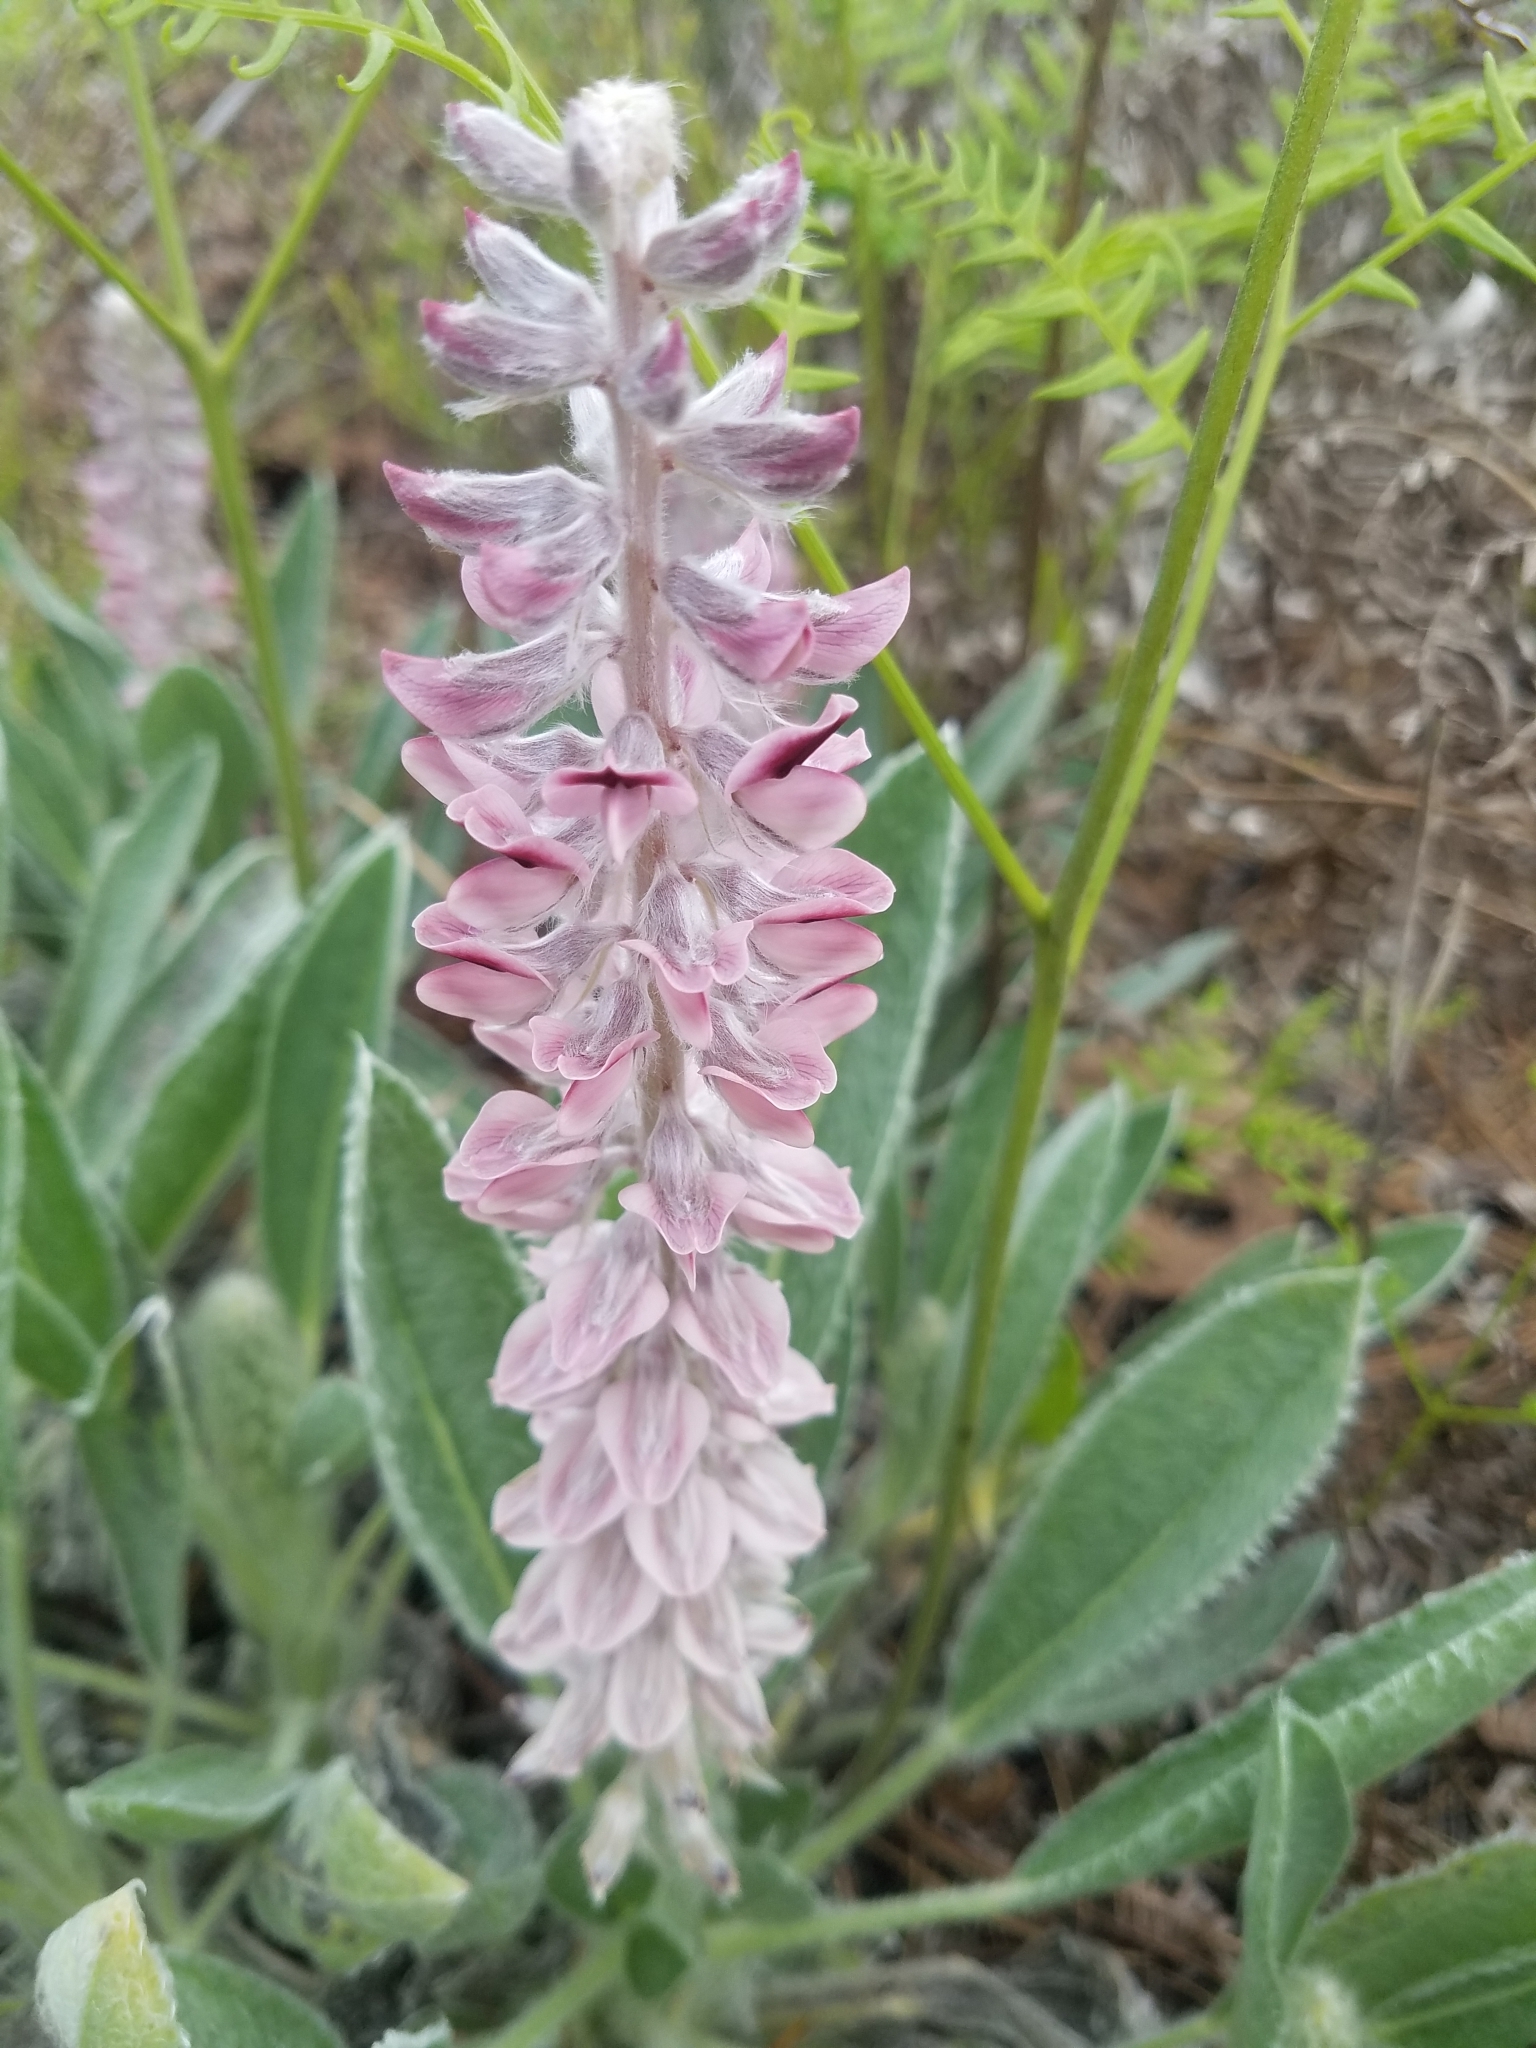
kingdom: Plantae
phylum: Tracheophyta
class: Magnoliopsida
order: Fabales
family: Fabaceae
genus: Lupinus
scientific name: Lupinus villosus
